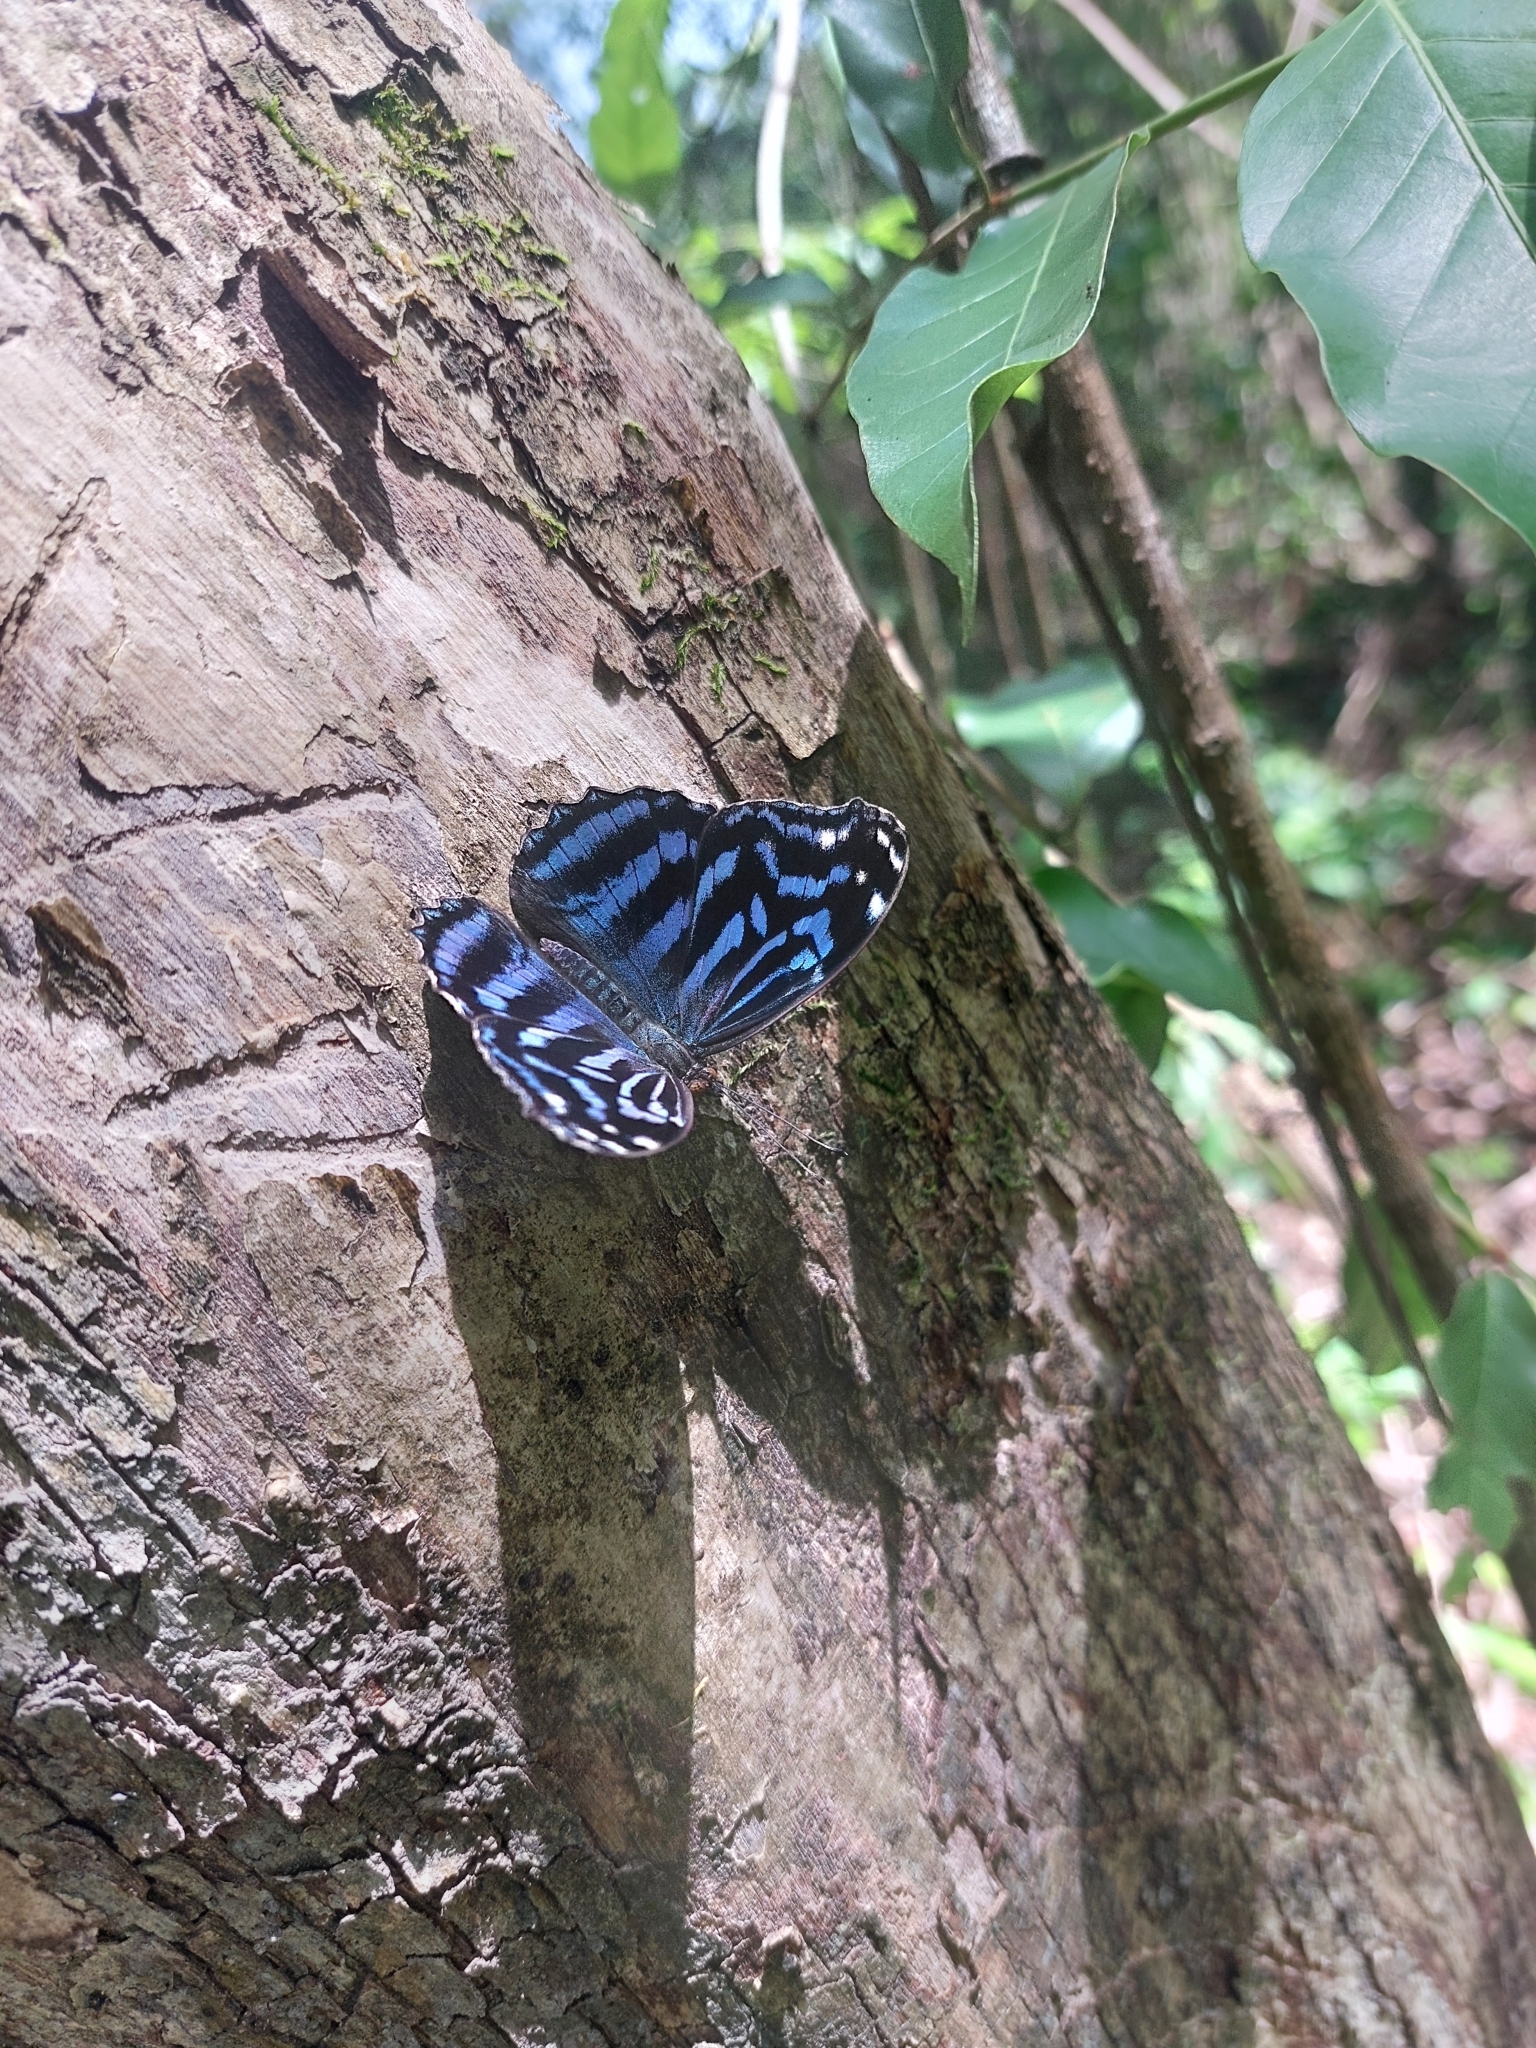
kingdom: Animalia
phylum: Arthropoda
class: Insecta
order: Lepidoptera
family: Nymphalidae
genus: Myscelia
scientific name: Myscelia ethusa
